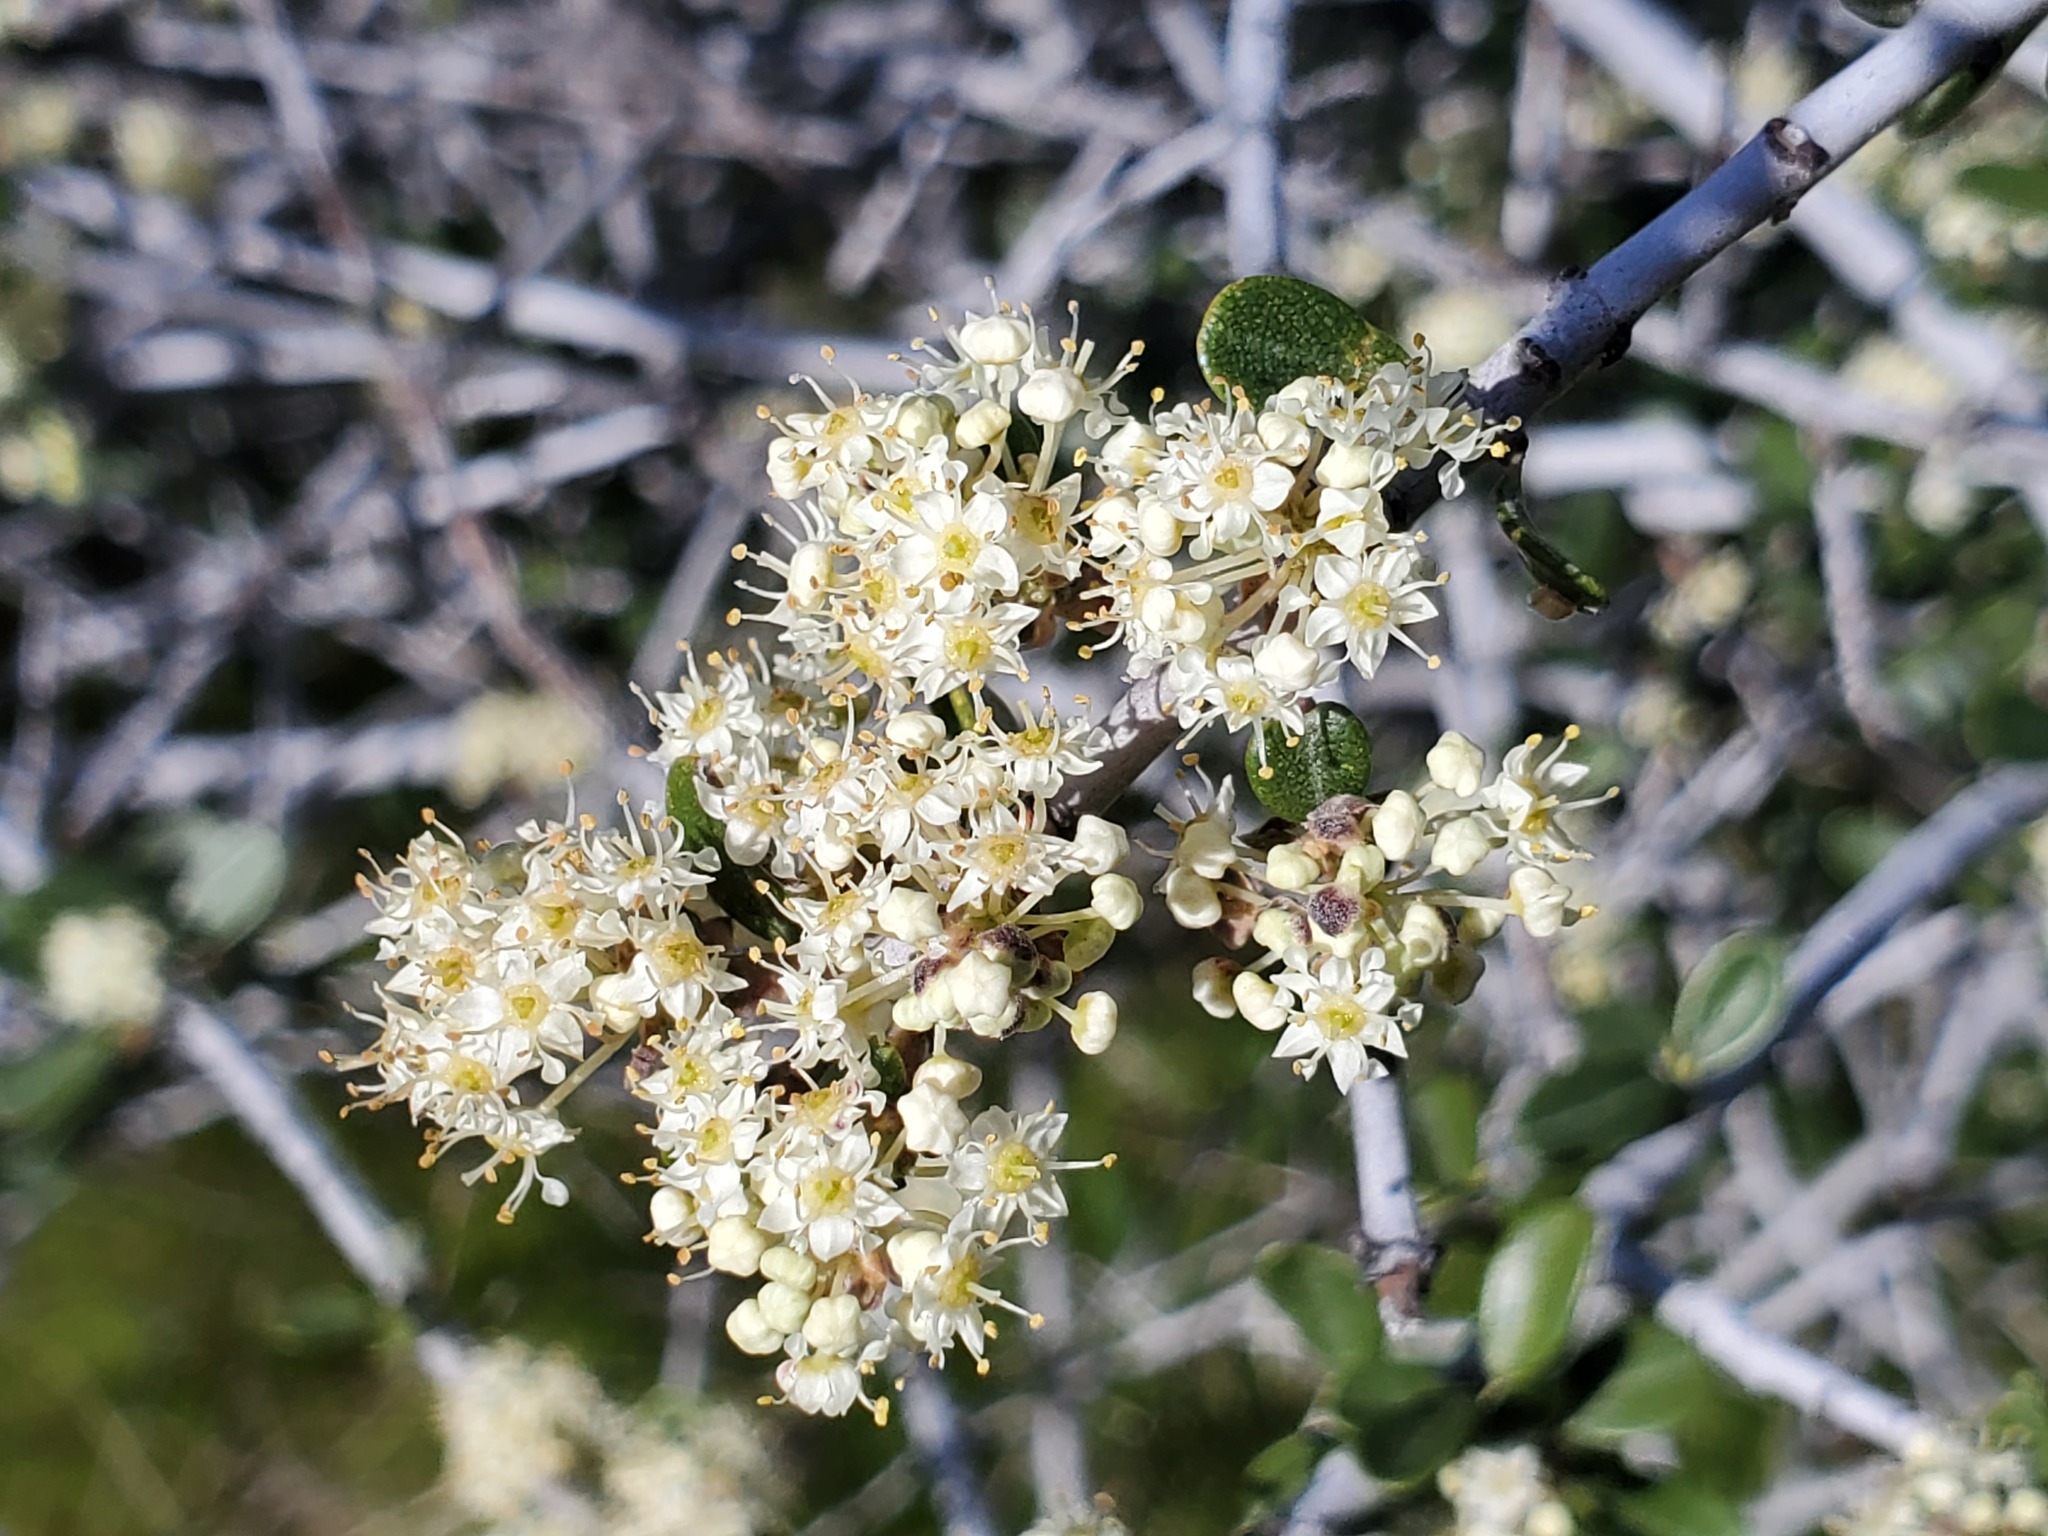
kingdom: Plantae
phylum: Tracheophyta
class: Magnoliopsida
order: Rosales
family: Rhamnaceae
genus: Ceanothus
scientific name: Ceanothus cuneatus
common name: Cuneate ceanothus
